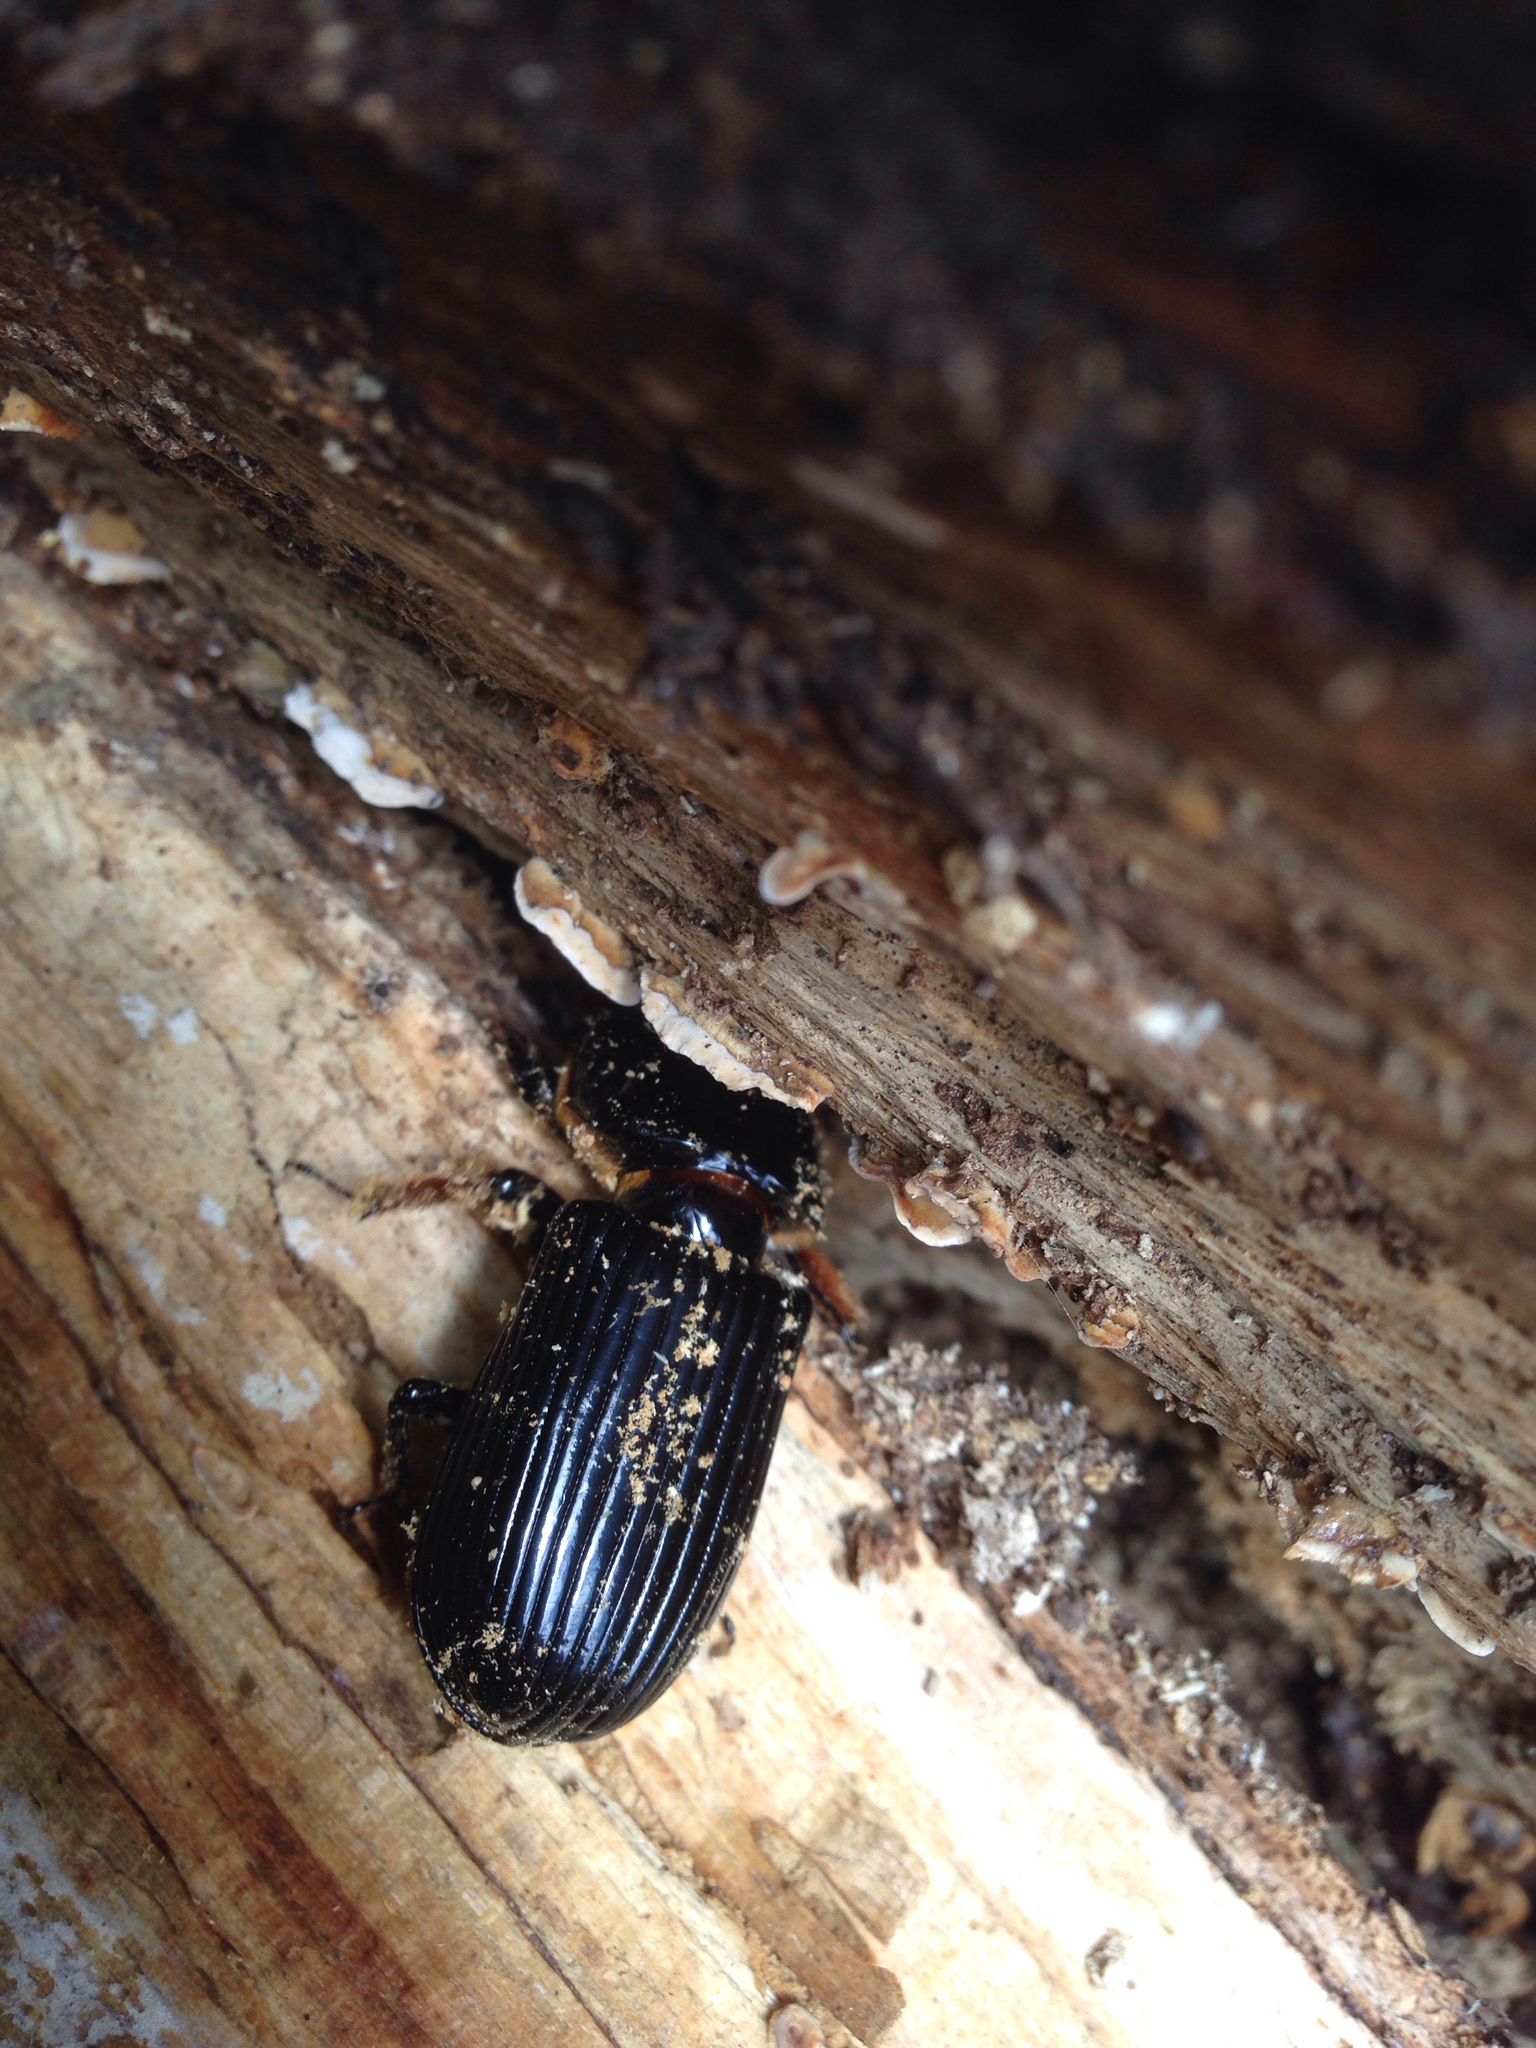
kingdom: Animalia
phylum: Arthropoda
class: Insecta
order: Coleoptera
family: Passalidae
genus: Odontotaenius
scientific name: Odontotaenius disjunctus
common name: Patent leather beetle
